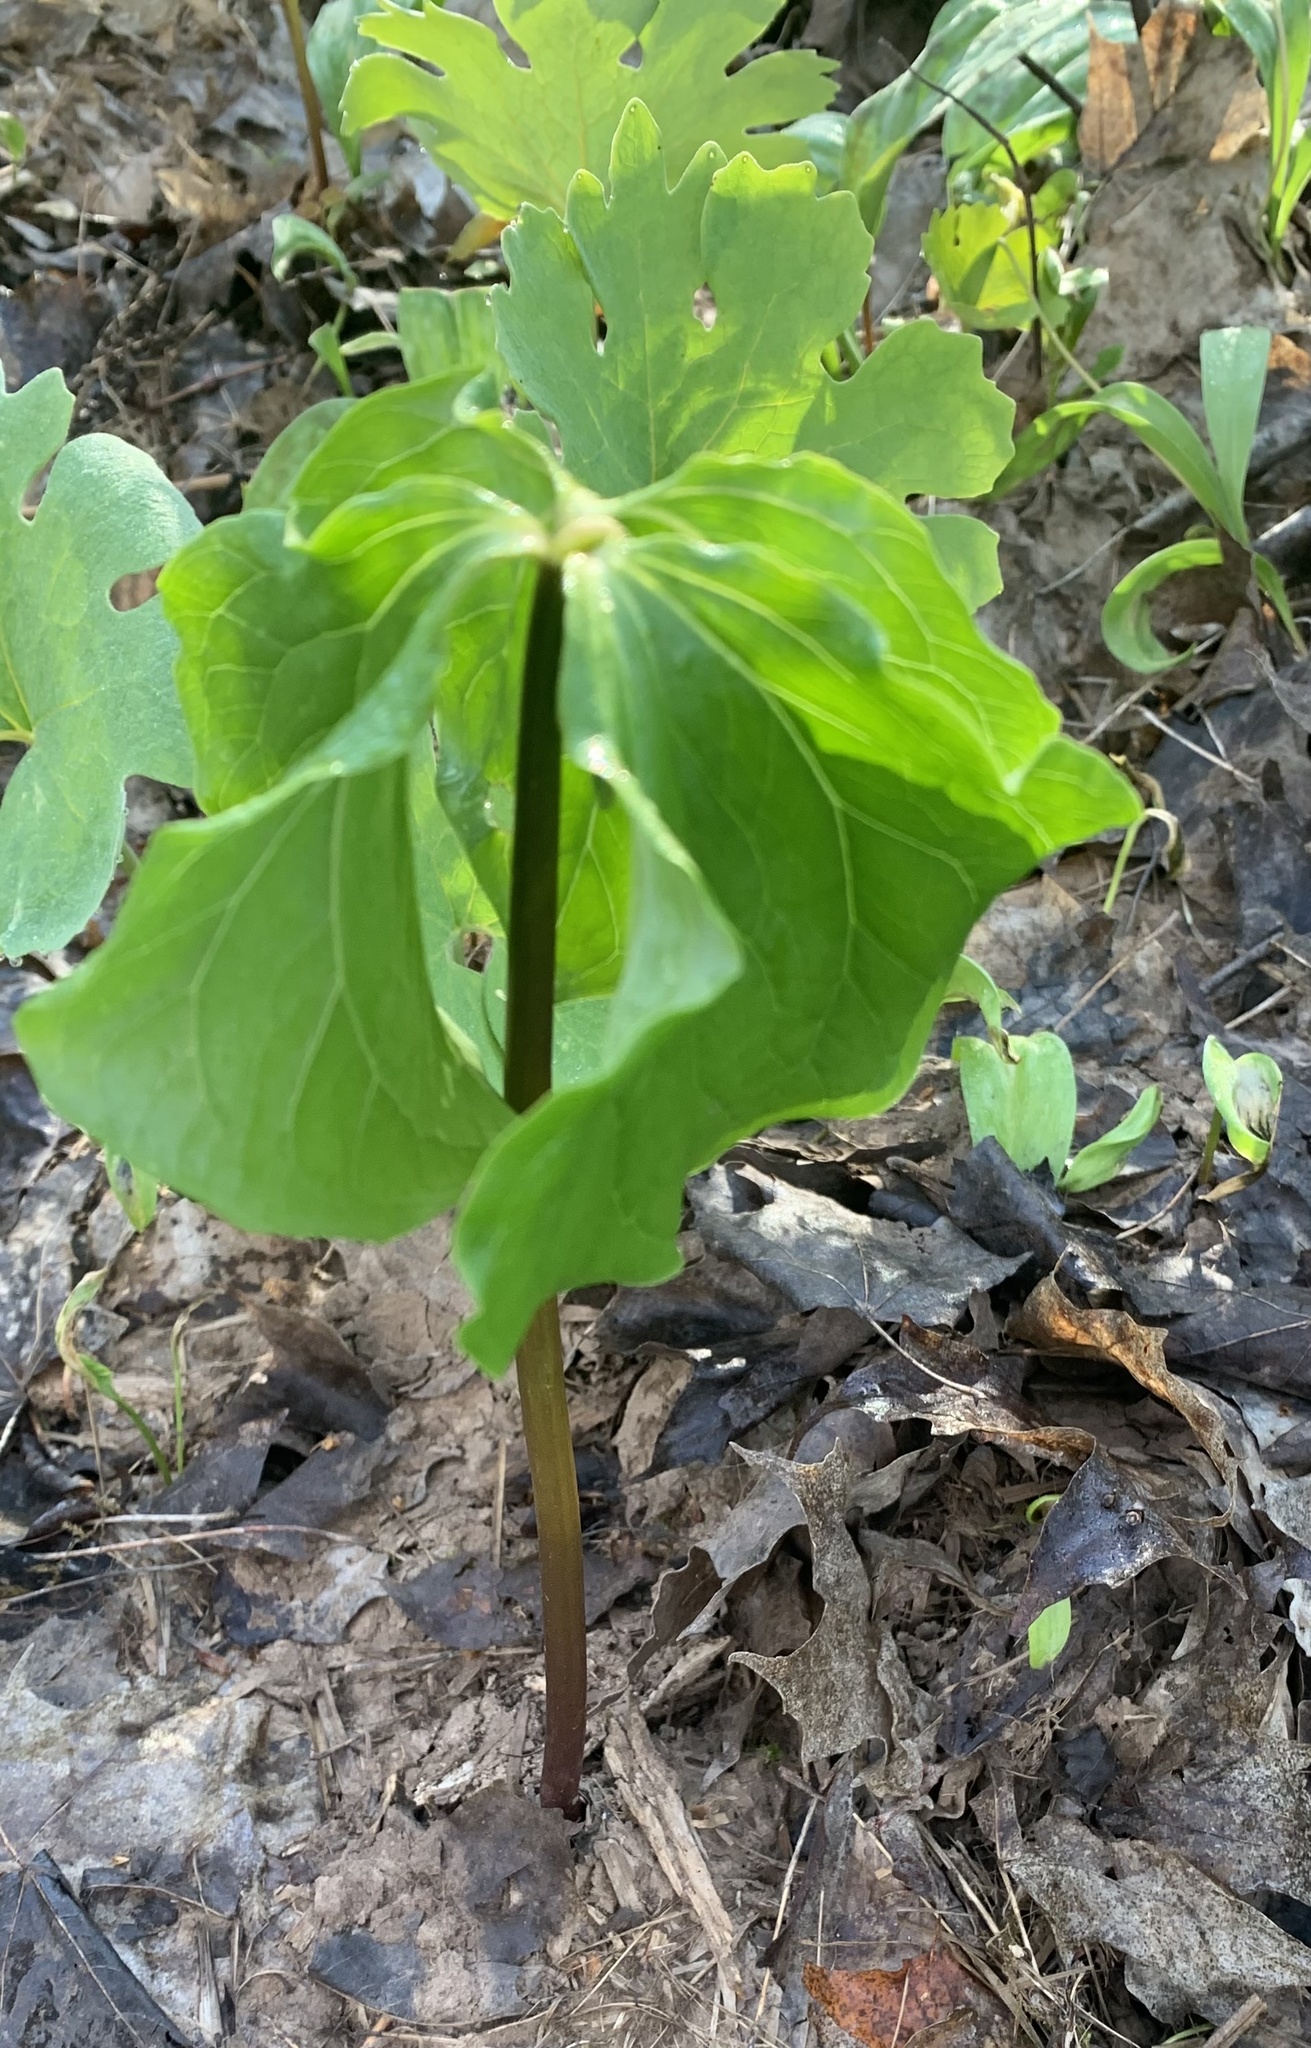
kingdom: Plantae
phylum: Tracheophyta
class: Liliopsida
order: Liliales
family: Melanthiaceae
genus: Trillium
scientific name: Trillium cernuum
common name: Nodding trillium
